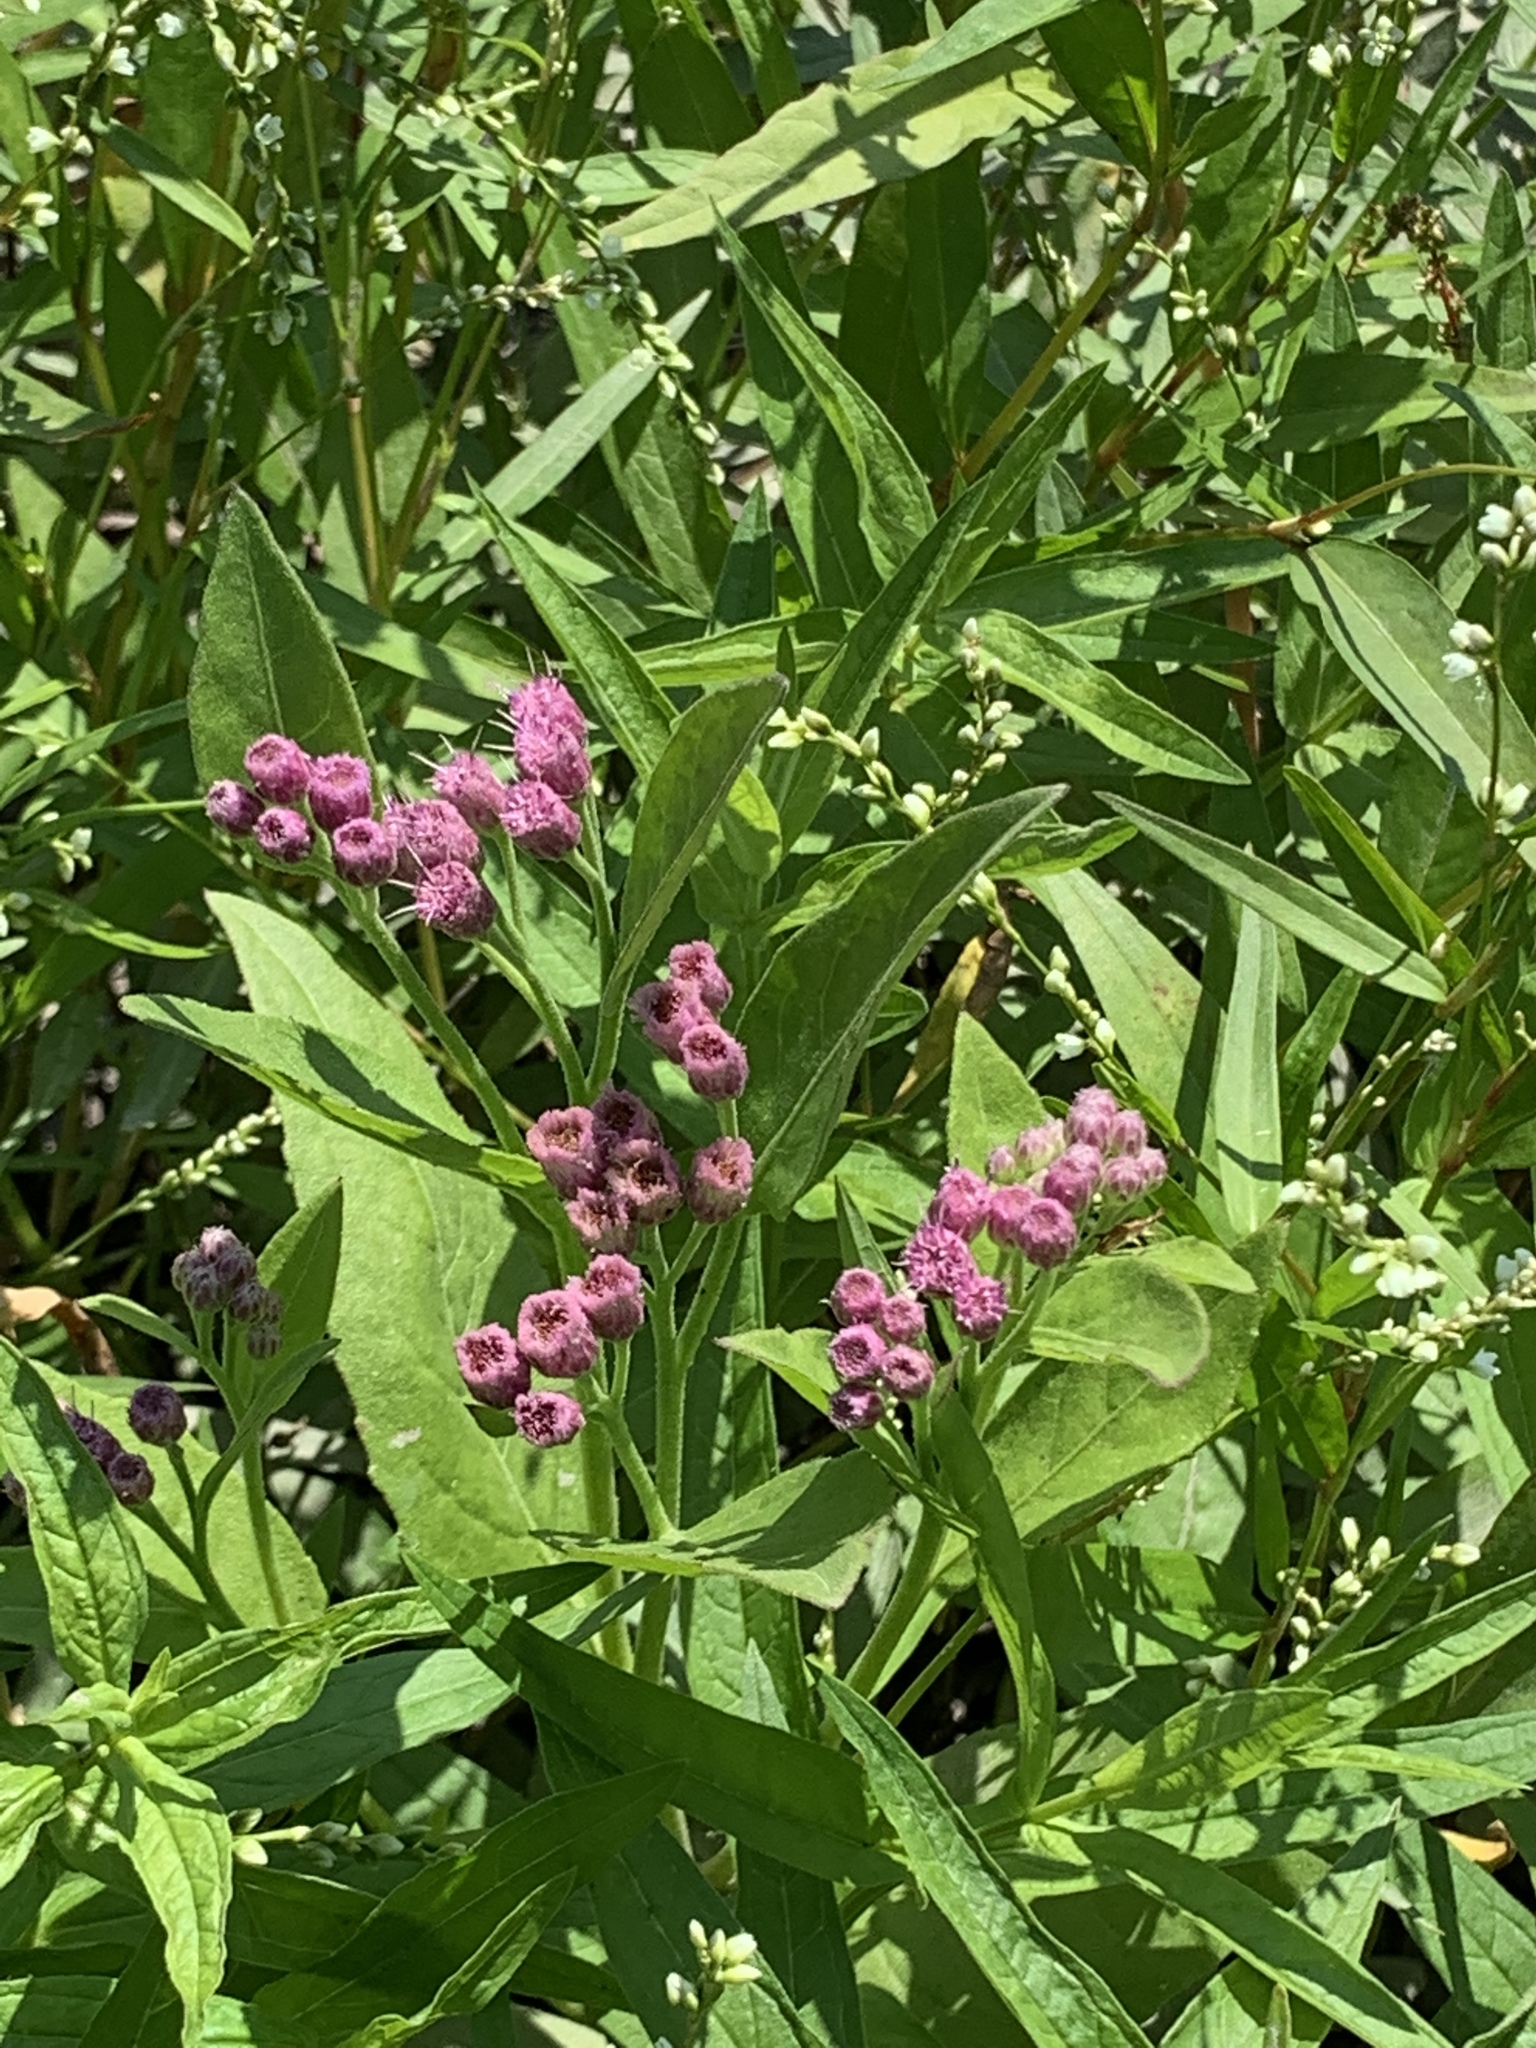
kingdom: Plantae
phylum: Tracheophyta
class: Magnoliopsida
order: Asterales
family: Asteraceae
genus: Pluchea
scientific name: Pluchea odorata
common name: Saltmarsh fleabane
